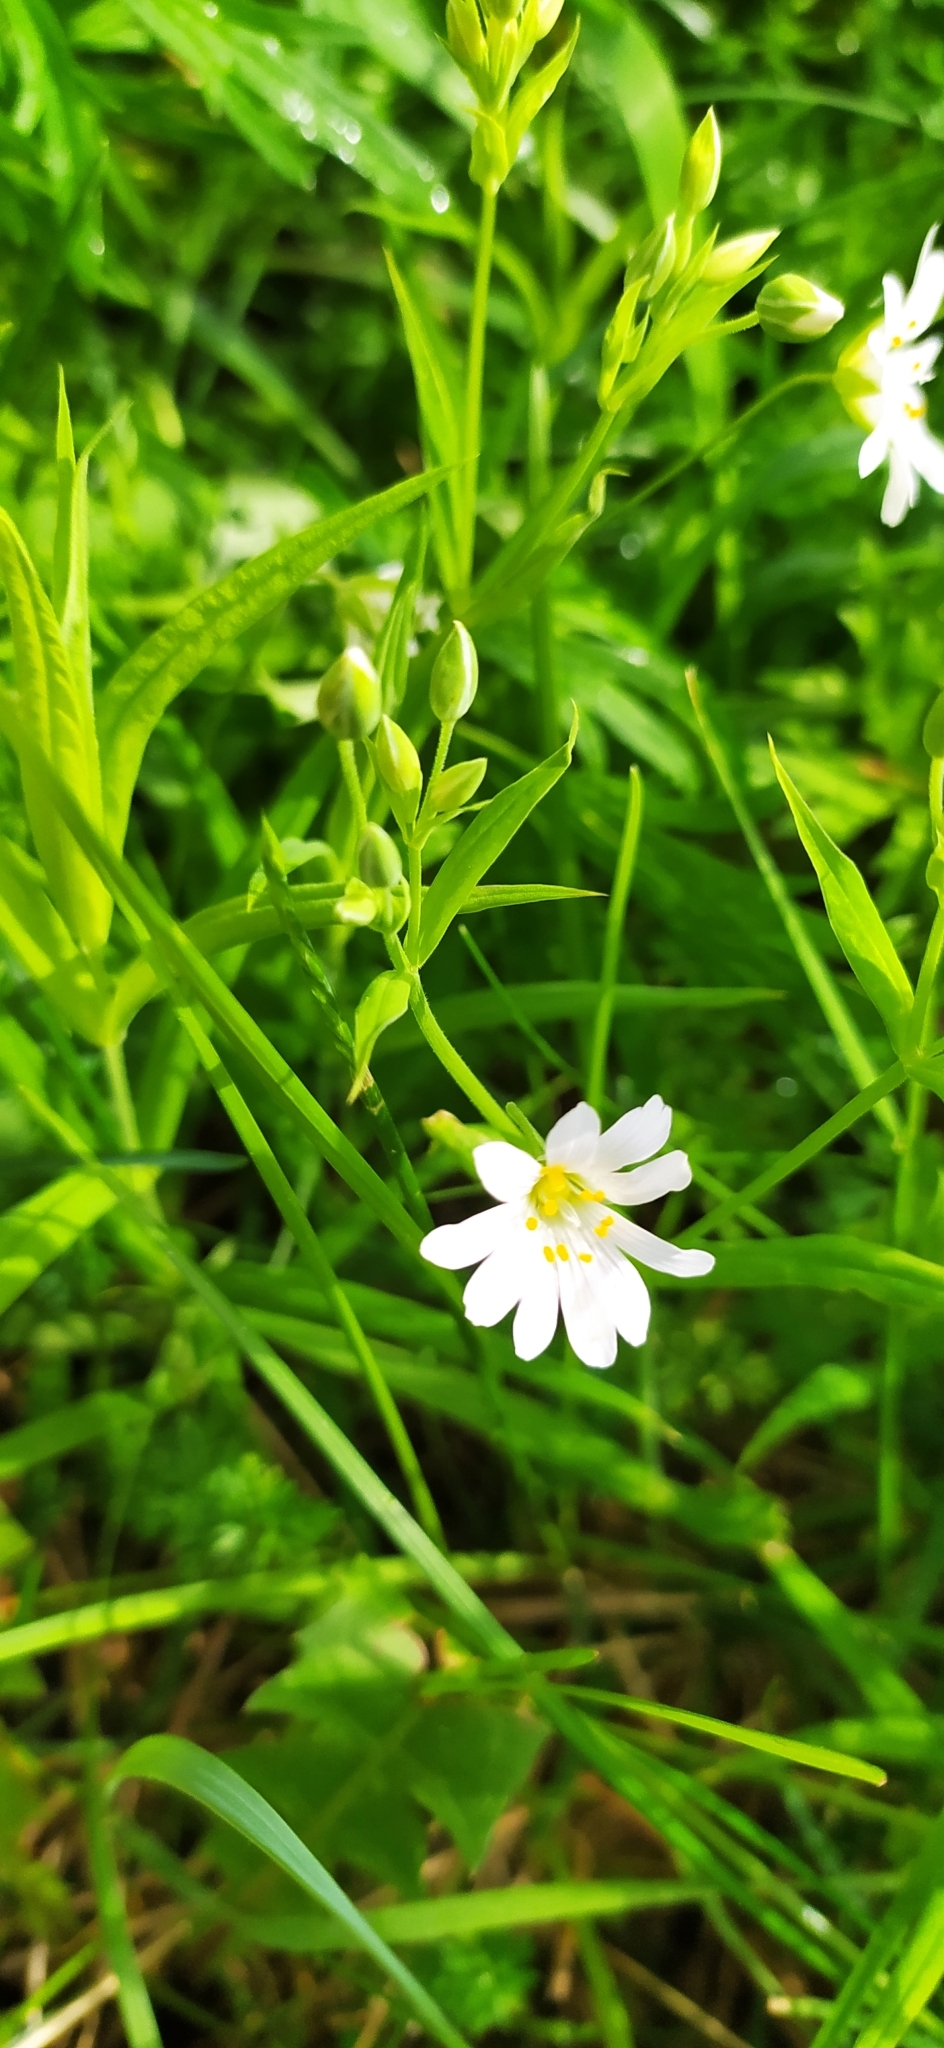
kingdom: Plantae
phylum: Tracheophyta
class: Magnoliopsida
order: Caryophyllales
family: Caryophyllaceae
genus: Rabelera
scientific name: Rabelera holostea
